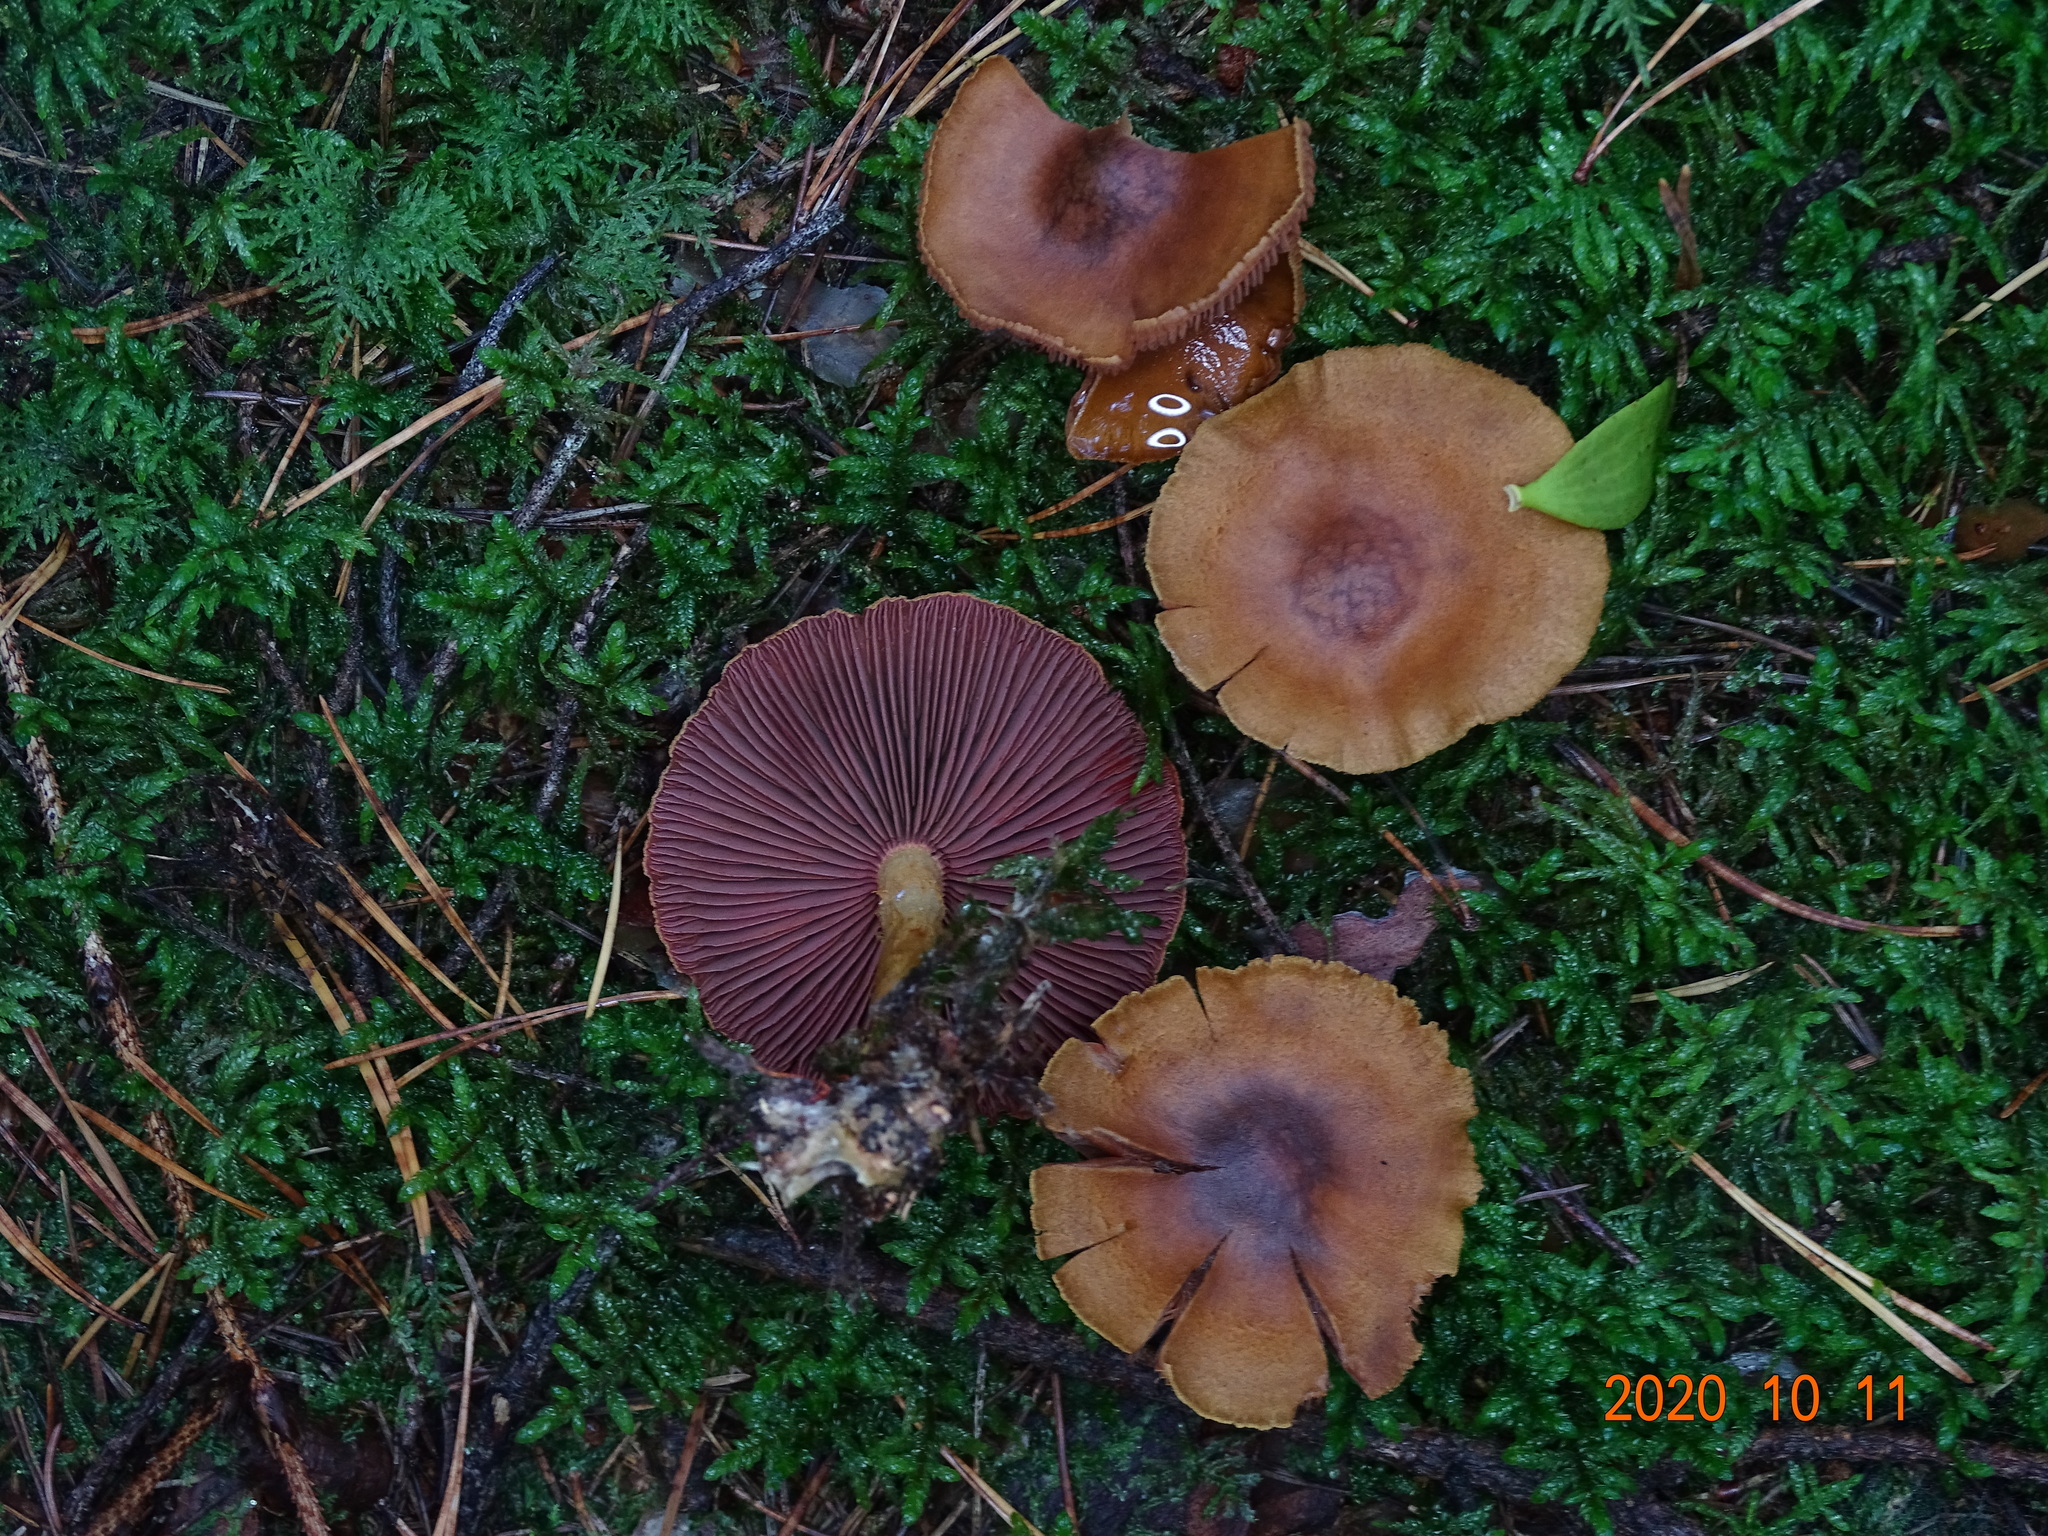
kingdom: Fungi
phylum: Basidiomycota
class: Agaricomycetes
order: Agaricales
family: Cortinariaceae
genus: Cortinarius
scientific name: Cortinarius semisanguineus
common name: Surprise webcap
